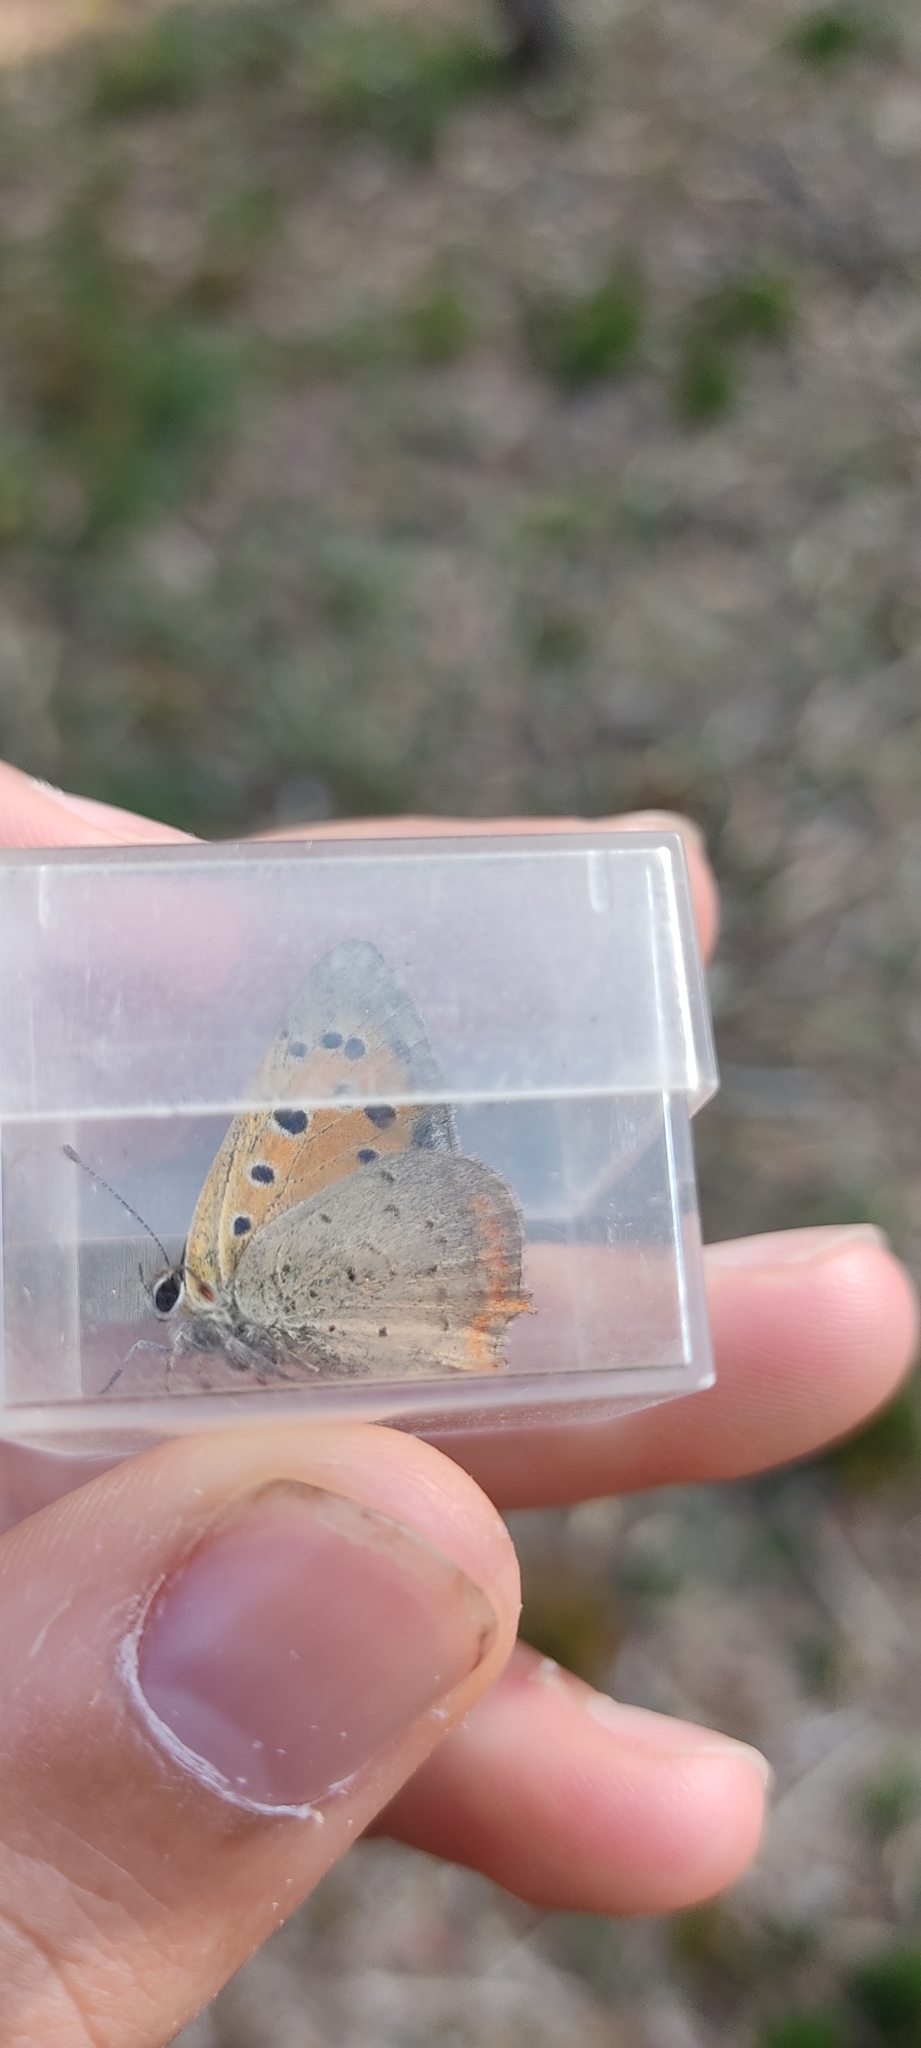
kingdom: Animalia
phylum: Arthropoda
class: Insecta
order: Lepidoptera
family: Lycaenidae
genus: Lycaena
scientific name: Lycaena phlaeas
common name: Small copper
